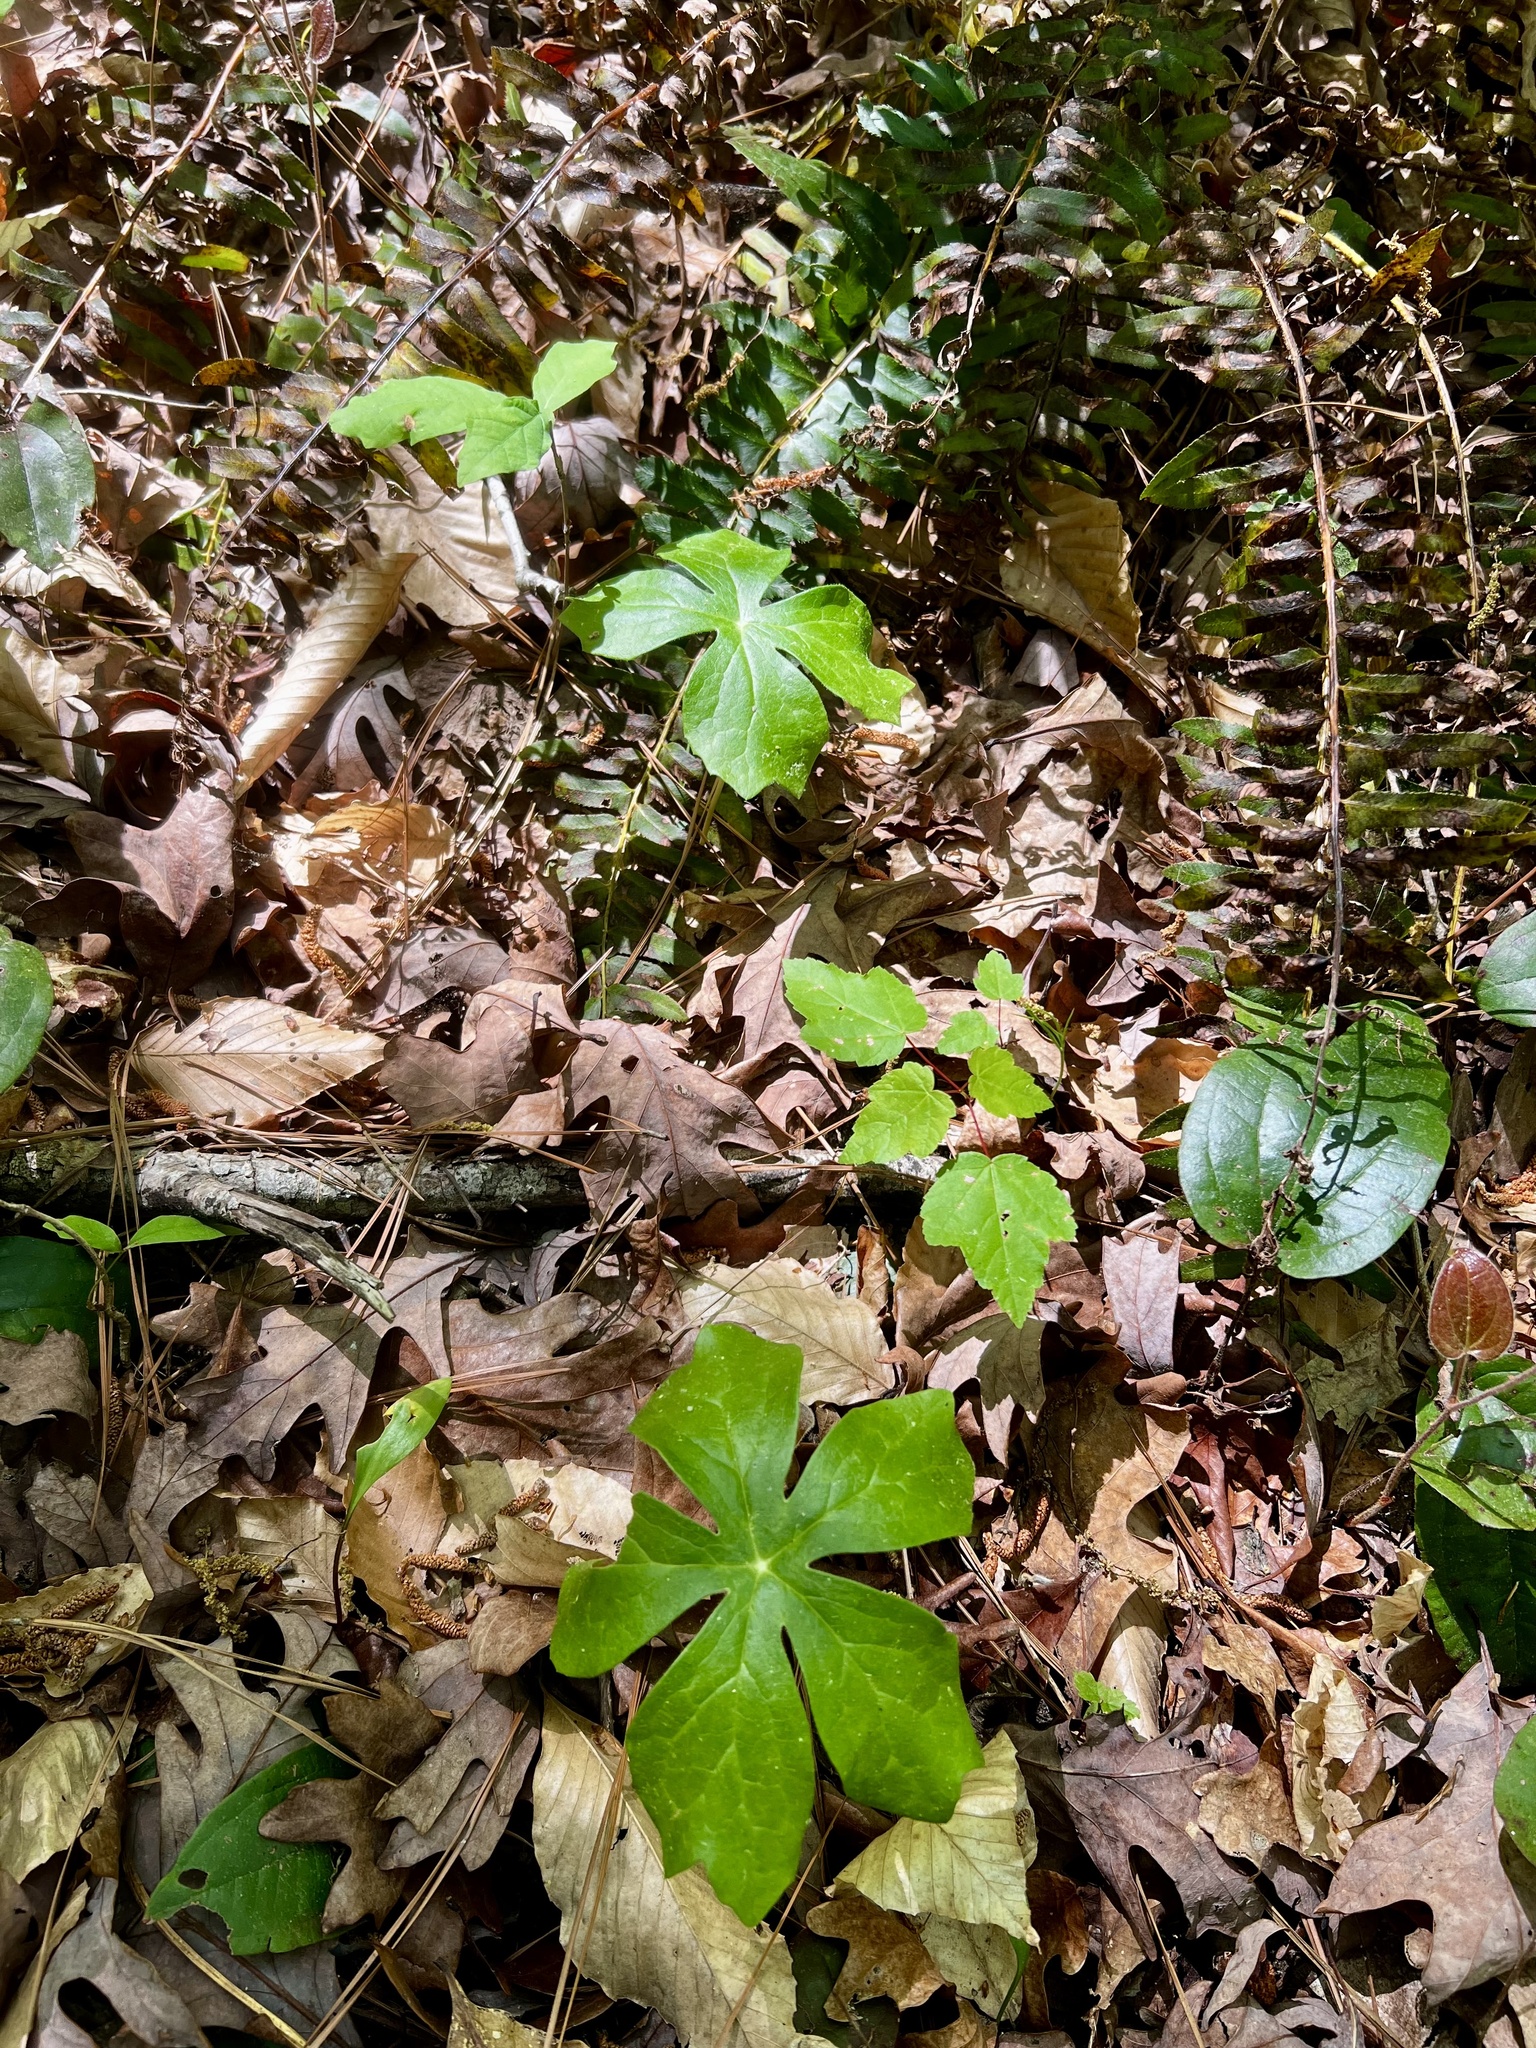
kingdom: Plantae
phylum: Tracheophyta
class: Magnoliopsida
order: Ranunculales
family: Berberidaceae
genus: Podophyllum
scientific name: Podophyllum peltatum
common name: Wild mandrake
